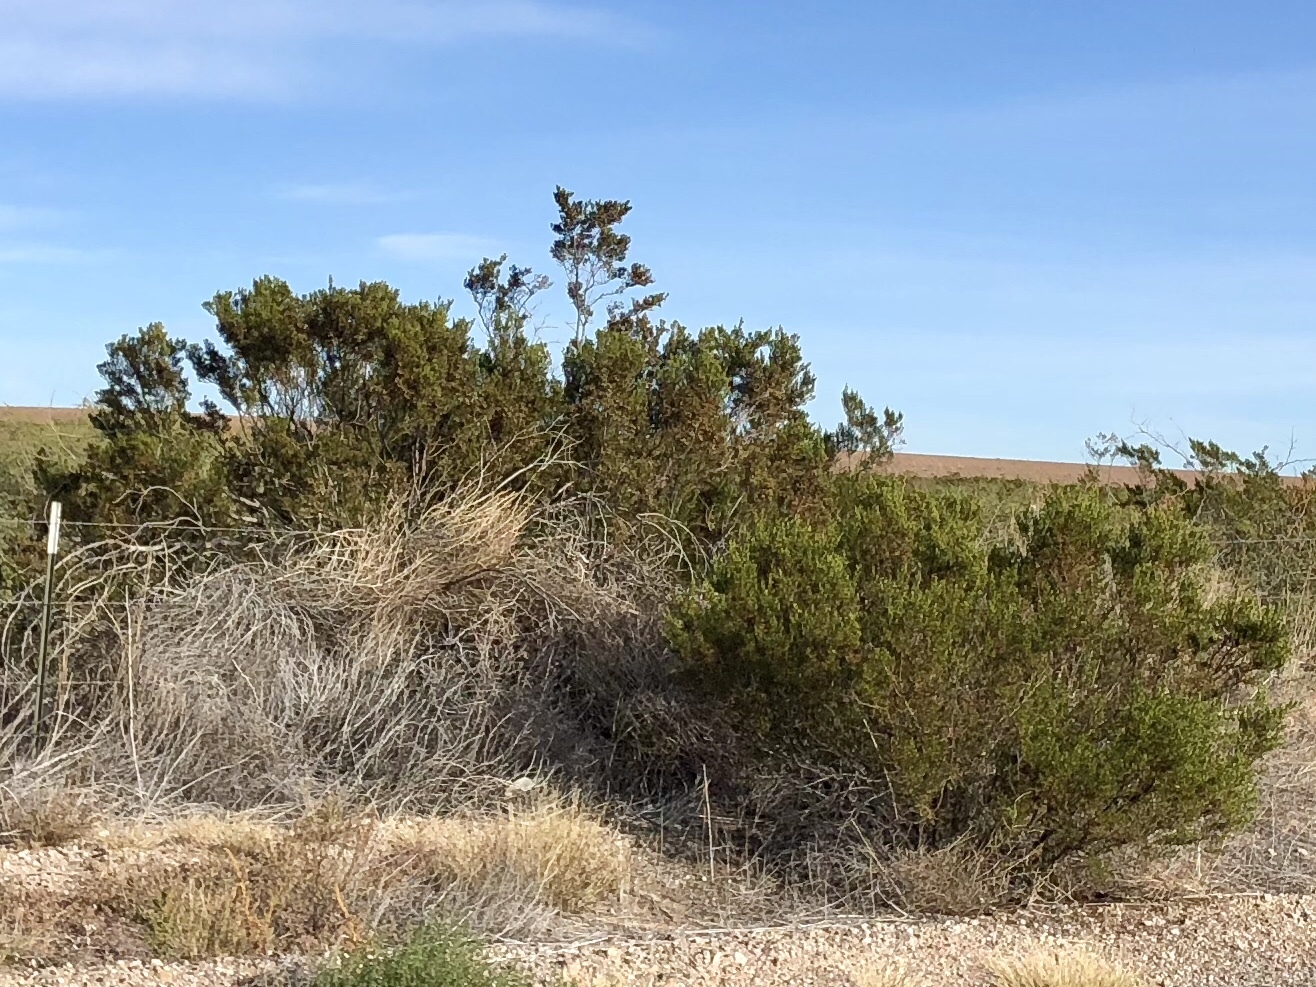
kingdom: Plantae
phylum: Tracheophyta
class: Magnoliopsida
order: Zygophyllales
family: Zygophyllaceae
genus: Larrea
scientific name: Larrea tridentata
